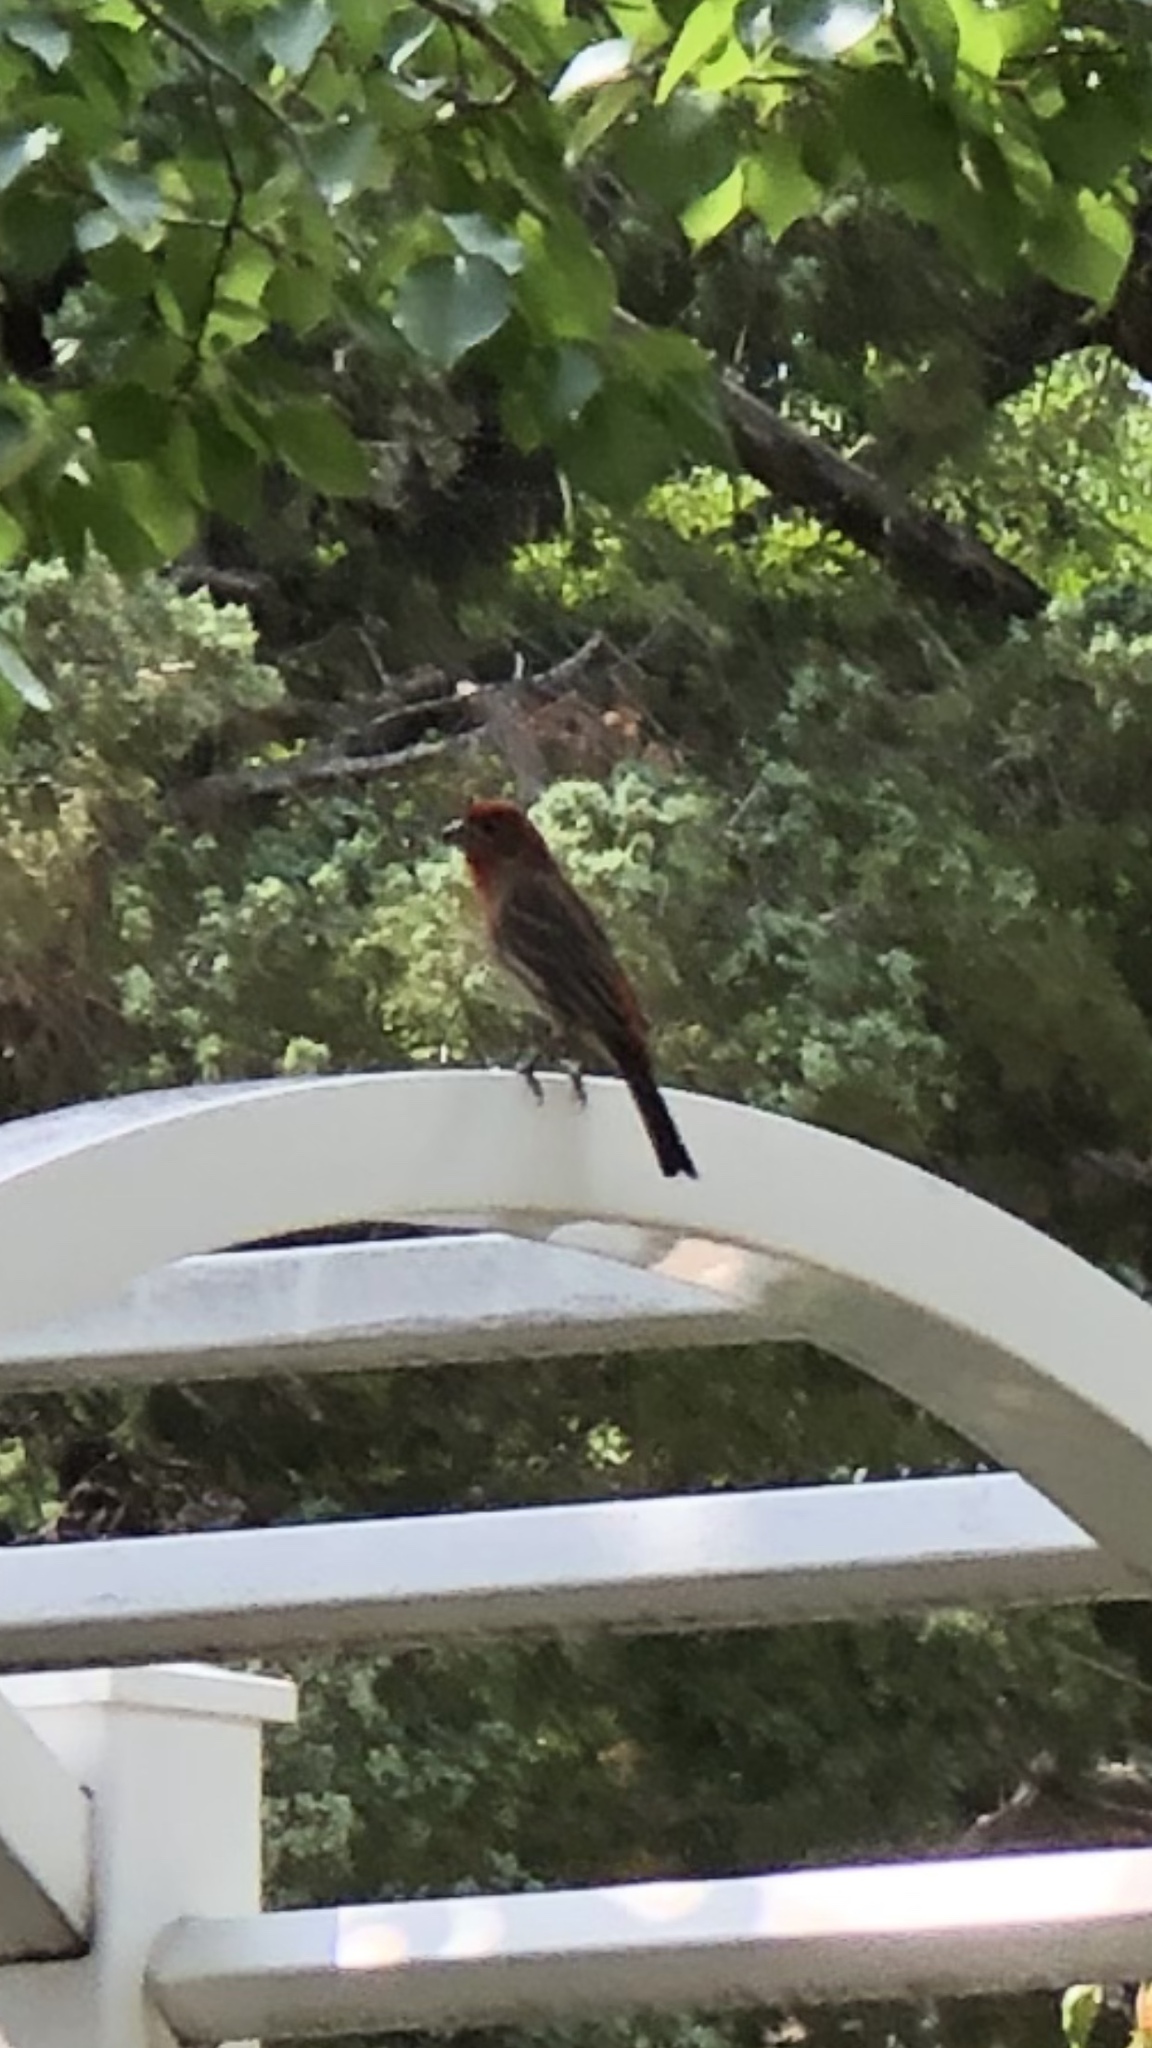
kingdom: Animalia
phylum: Chordata
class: Aves
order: Passeriformes
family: Fringillidae
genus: Haemorhous
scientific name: Haemorhous mexicanus
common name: House finch
